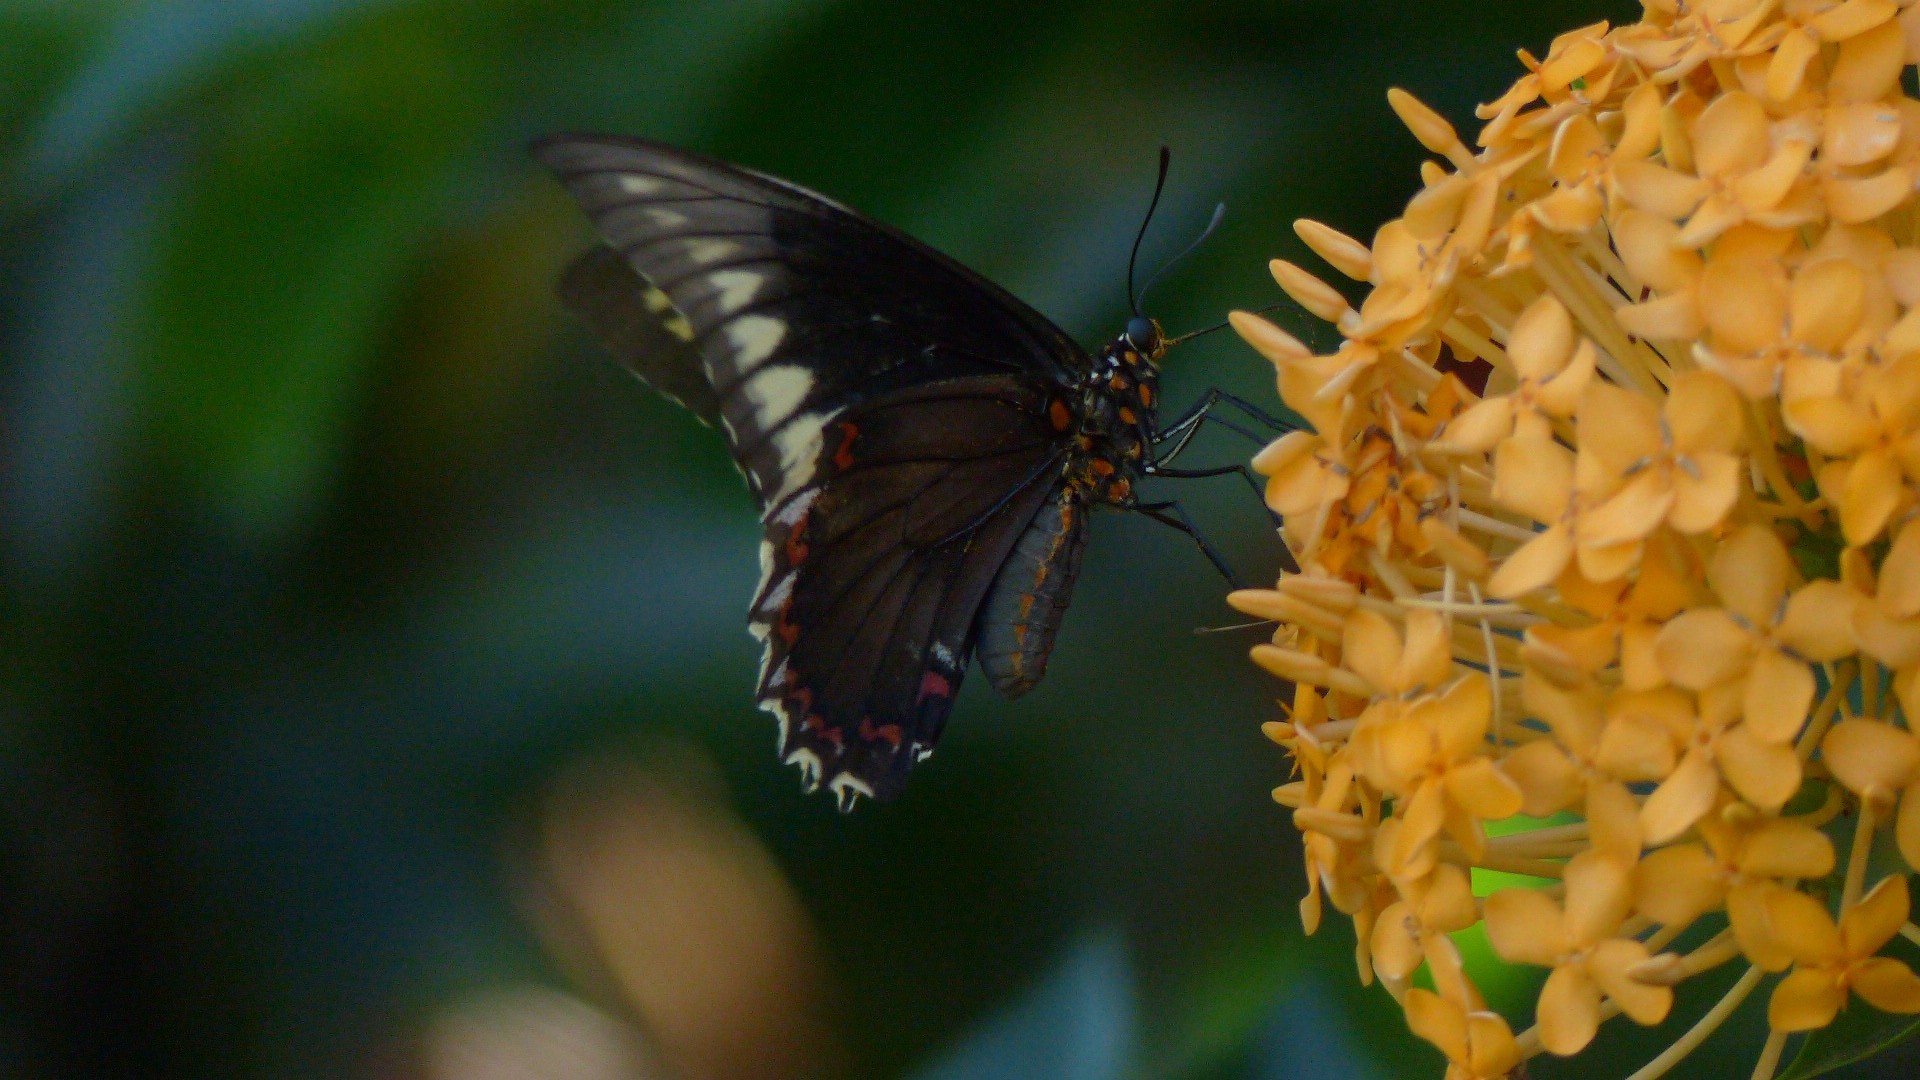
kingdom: Animalia
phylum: Arthropoda
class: Insecta
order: Lepidoptera
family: Papilionidae
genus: Battus
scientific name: Battus polydamas
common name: Polydamas swallowtail
